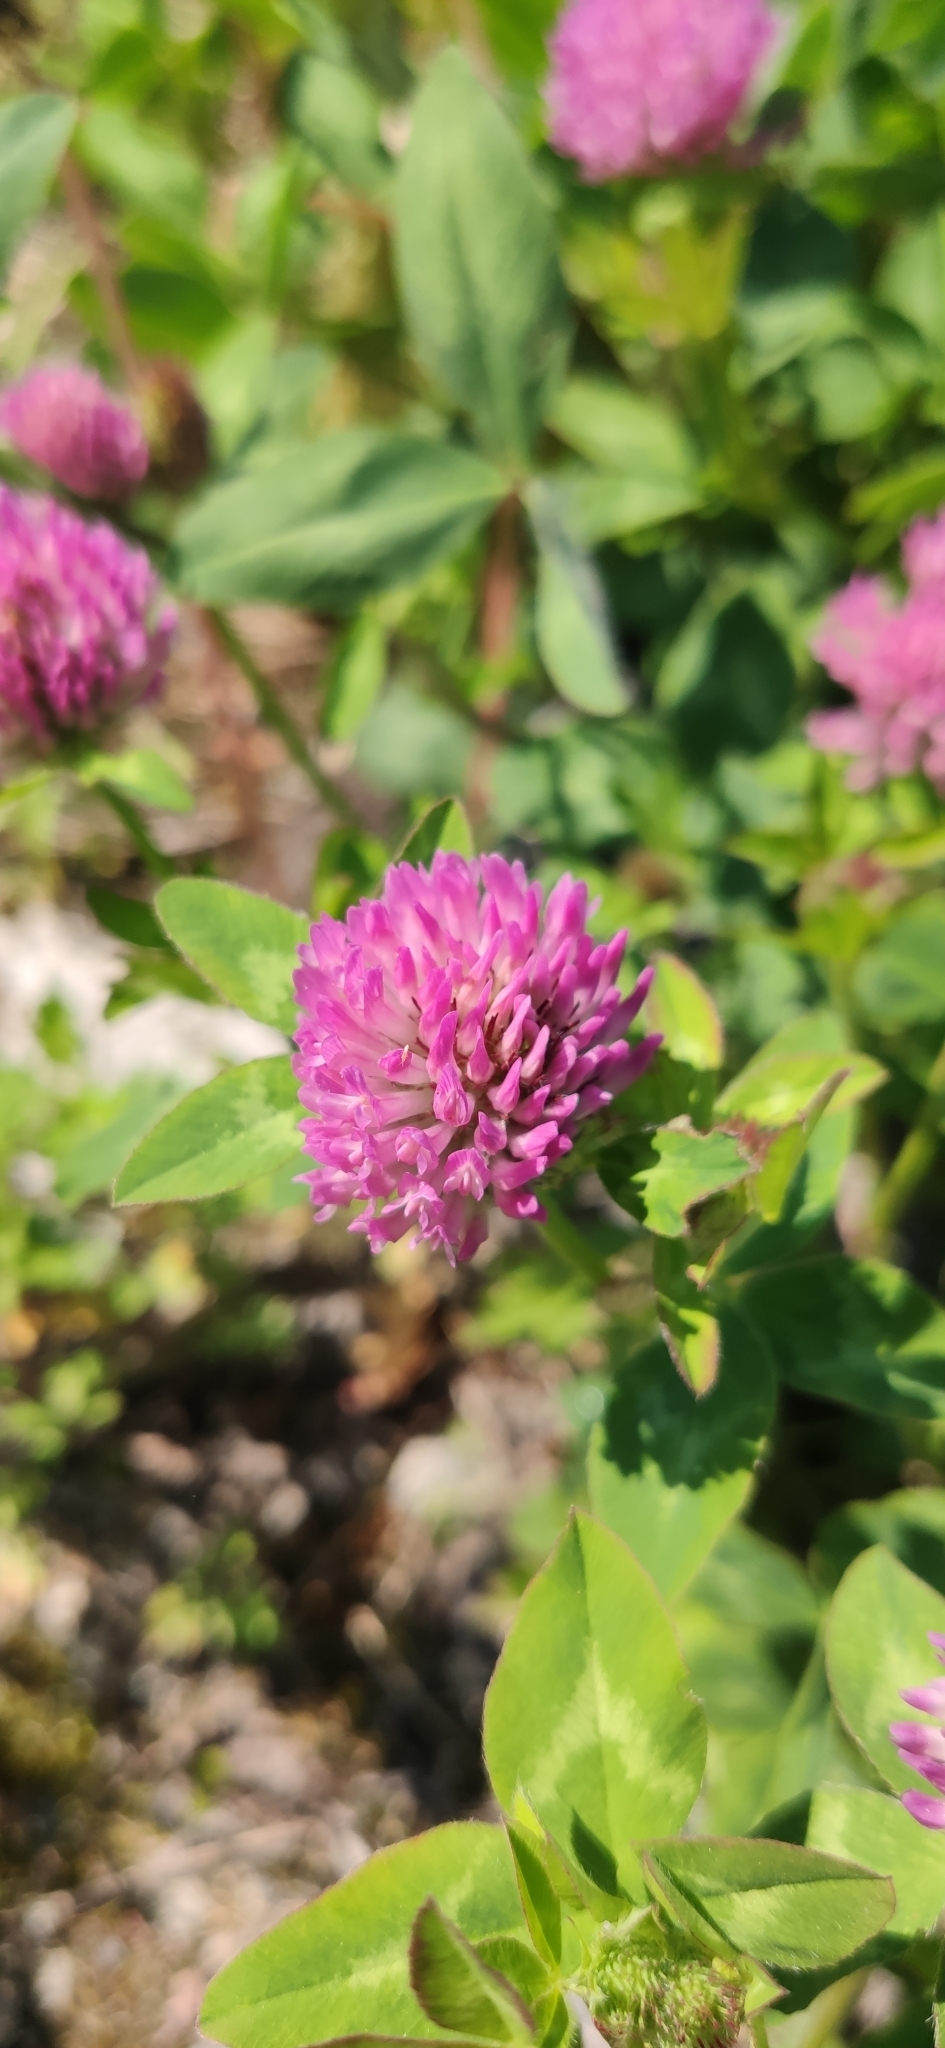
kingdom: Plantae
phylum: Tracheophyta
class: Magnoliopsida
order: Fabales
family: Fabaceae
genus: Trifolium
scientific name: Trifolium pratense
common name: Red clover
